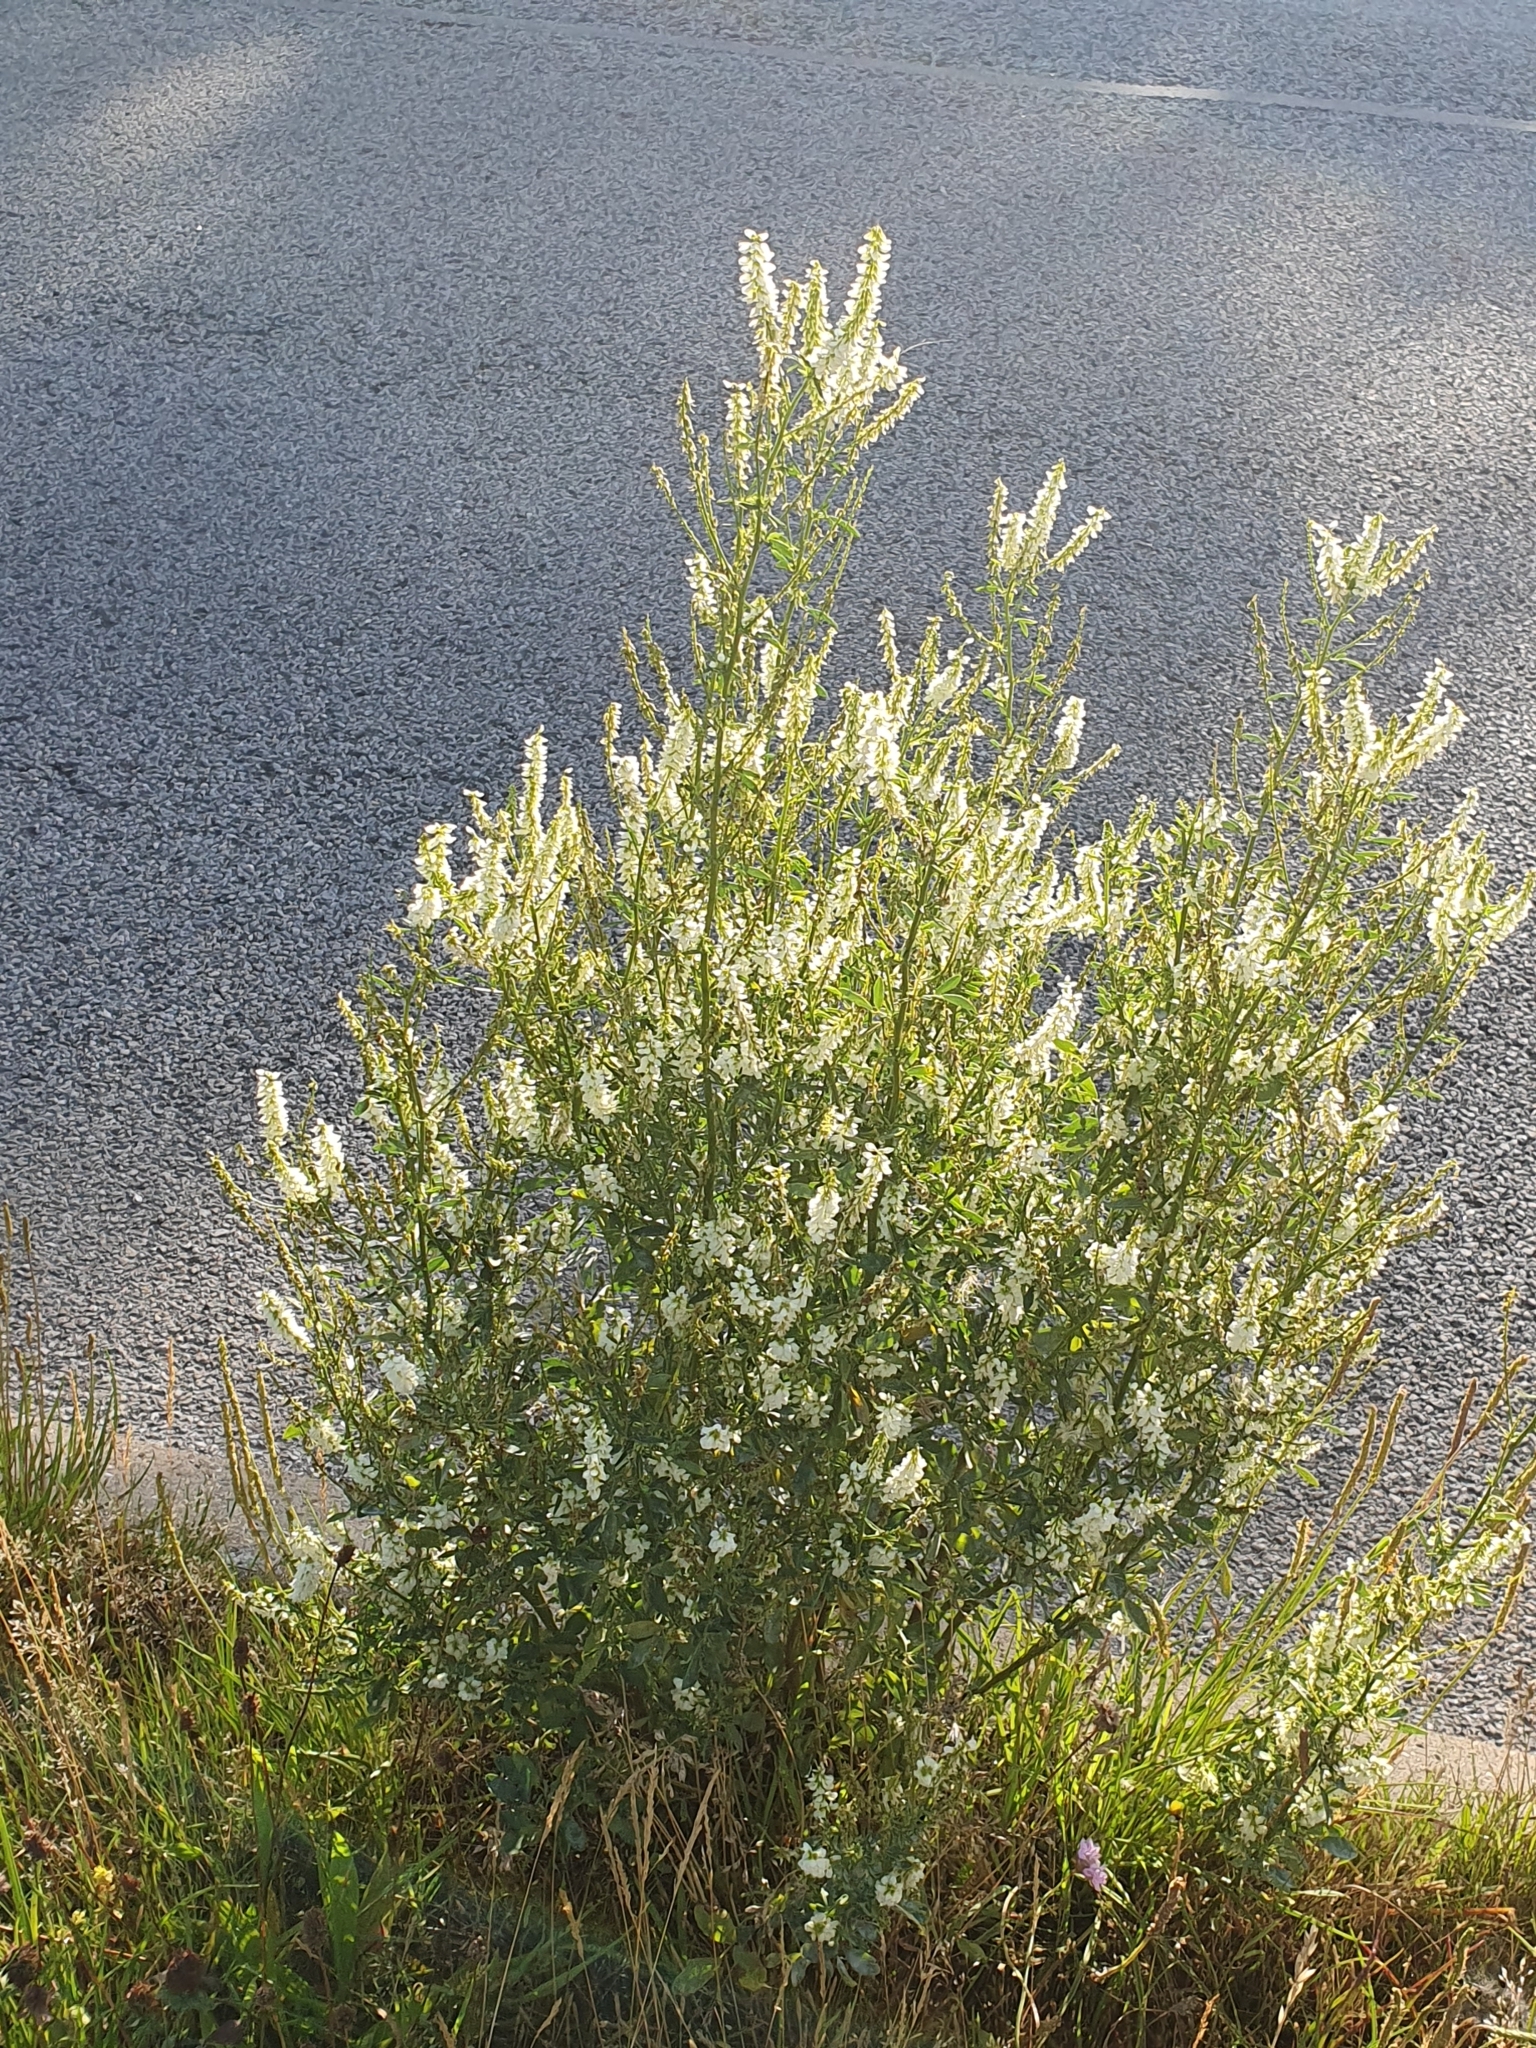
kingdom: Plantae
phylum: Tracheophyta
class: Magnoliopsida
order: Fabales
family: Fabaceae
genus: Melilotus
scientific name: Melilotus albus
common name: White melilot
